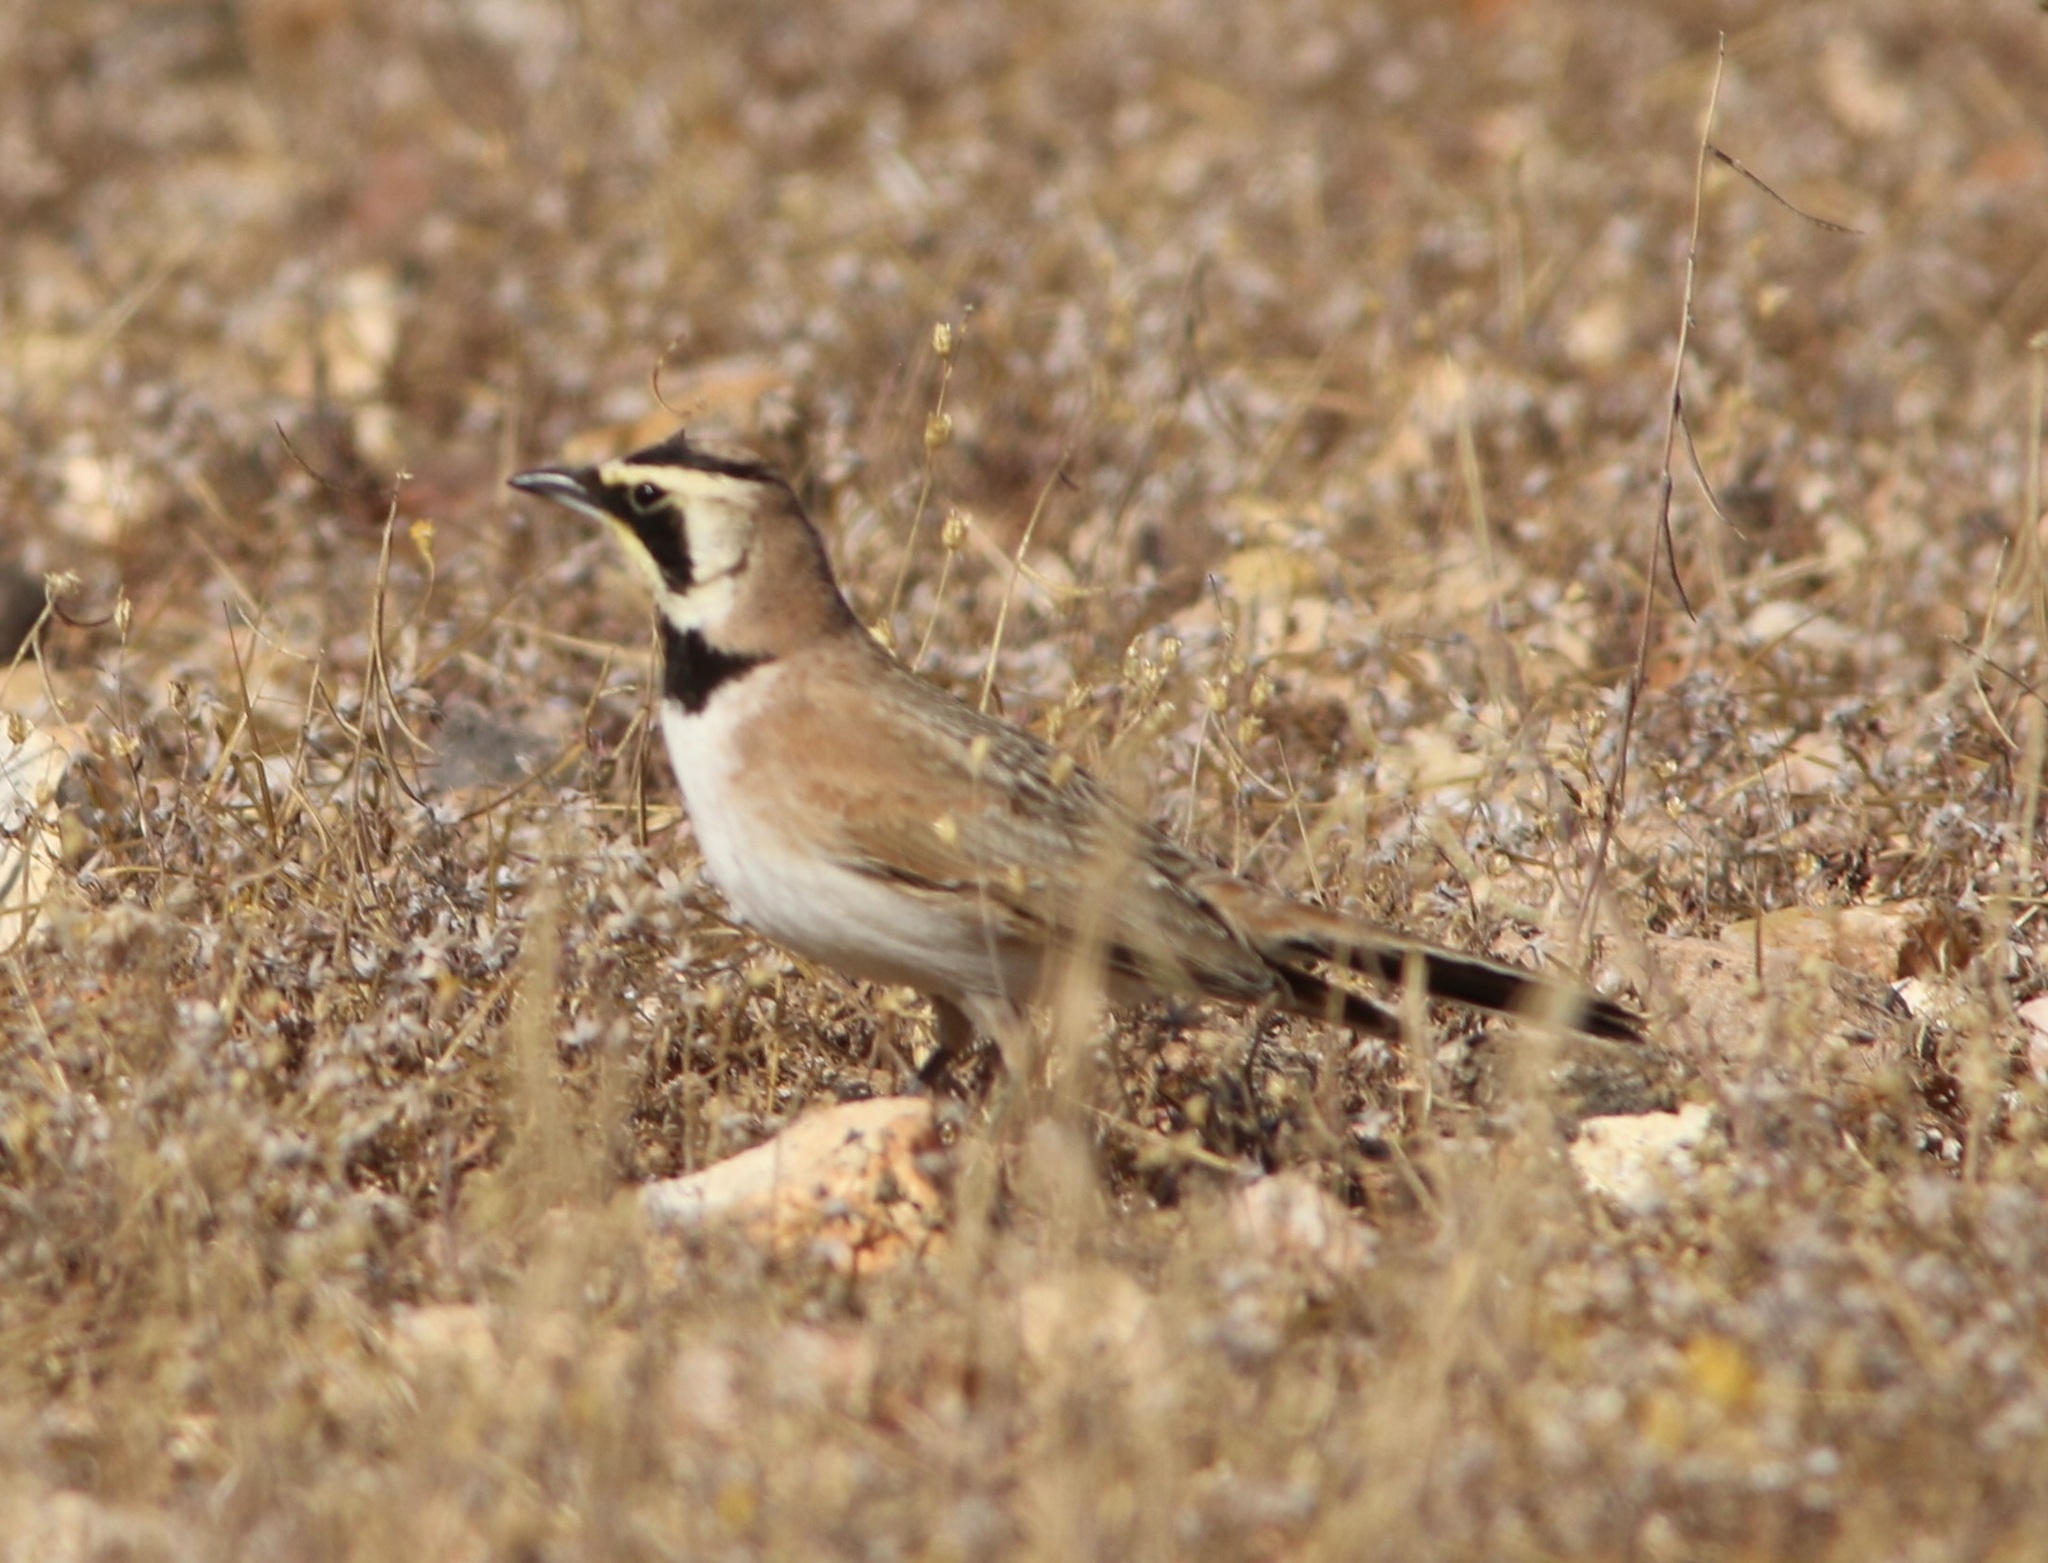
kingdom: Animalia
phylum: Chordata
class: Aves
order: Passeriformes
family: Alaudidae
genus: Eremophila
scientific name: Eremophila alpestris
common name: Horned lark
